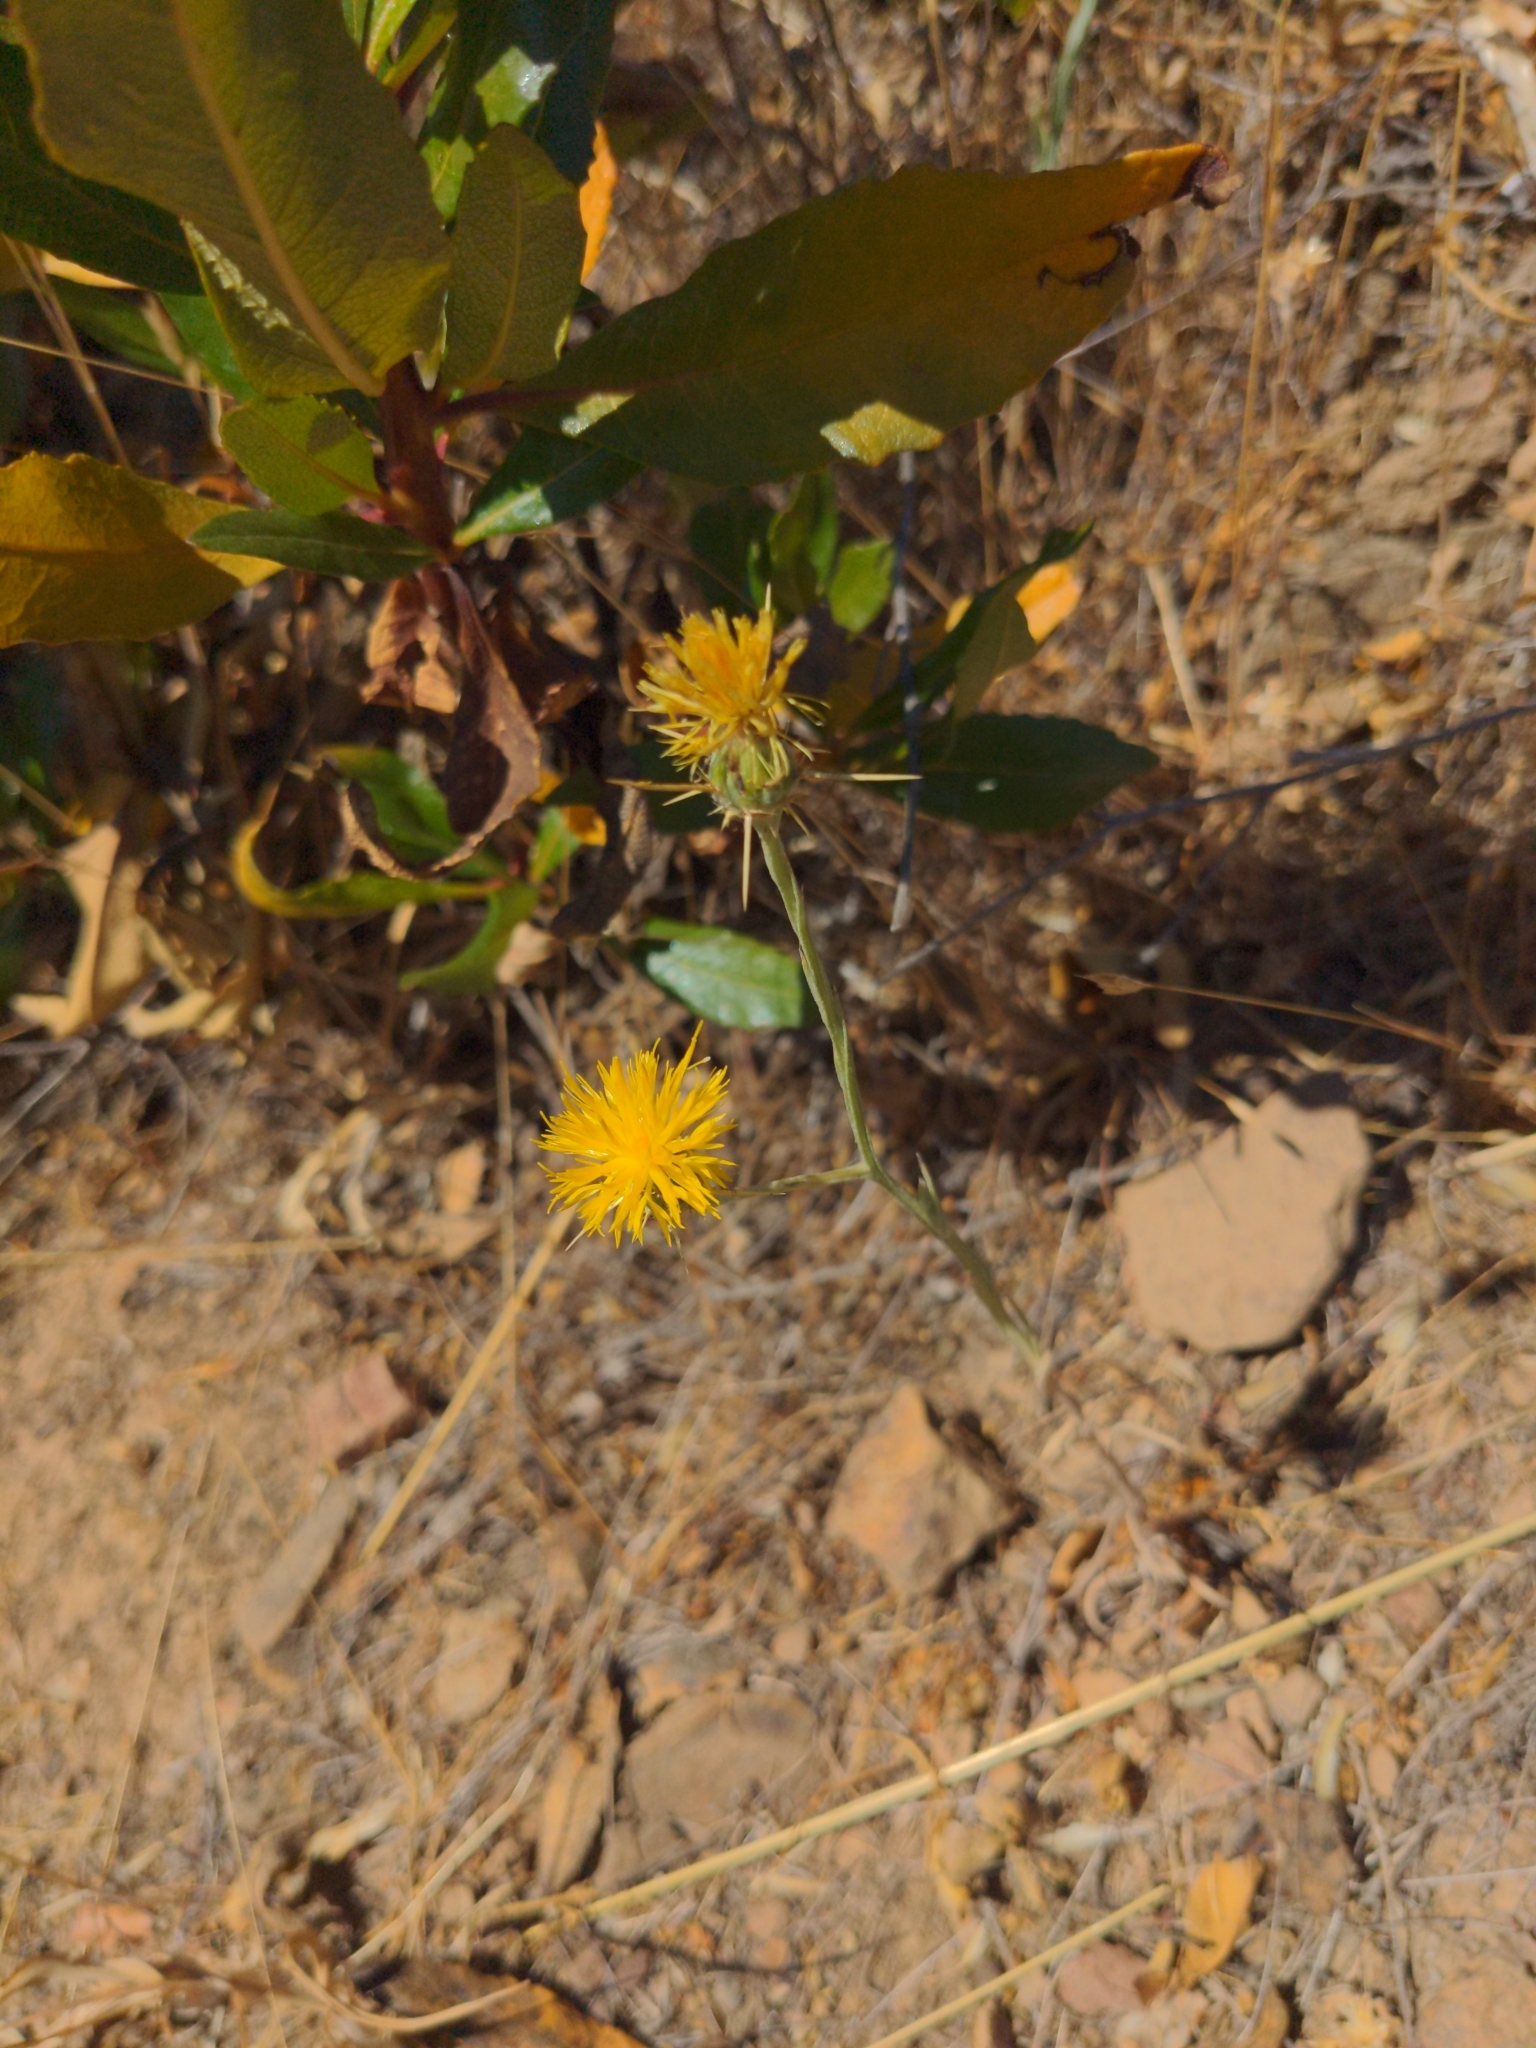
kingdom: Plantae
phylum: Tracheophyta
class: Magnoliopsida
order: Asterales
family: Asteraceae
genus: Centaurea
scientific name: Centaurea solstitialis
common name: Yellow star-thistle
